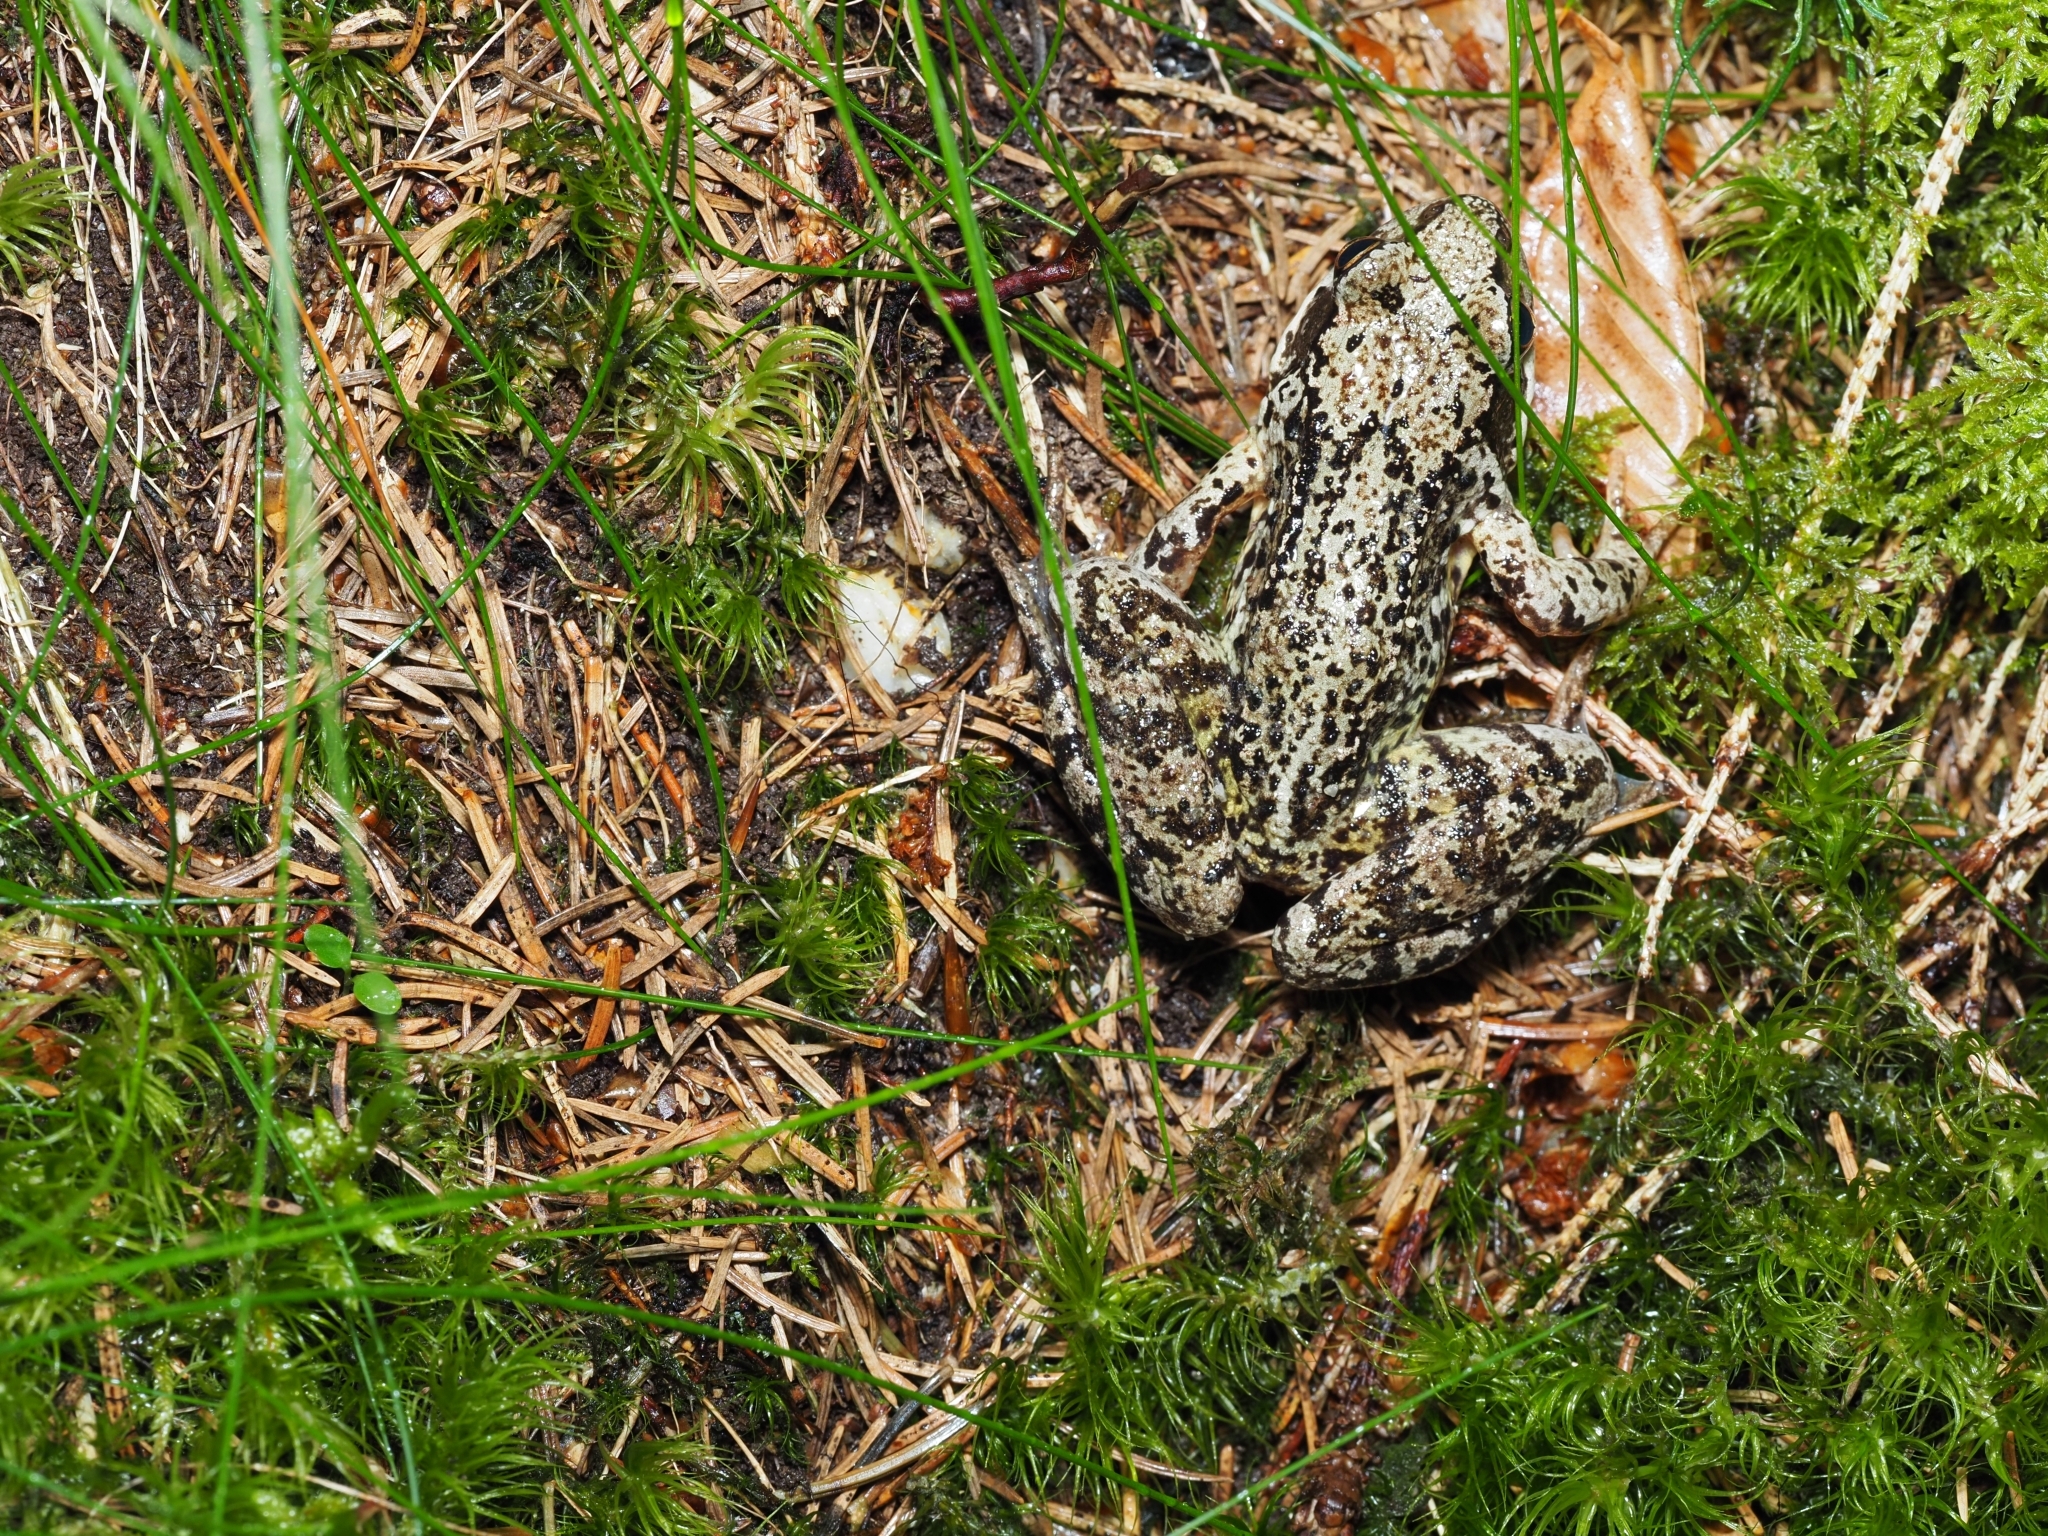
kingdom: Animalia
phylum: Chordata
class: Amphibia
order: Anura
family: Ranidae
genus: Rana
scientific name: Rana temporaria
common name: Common frog
